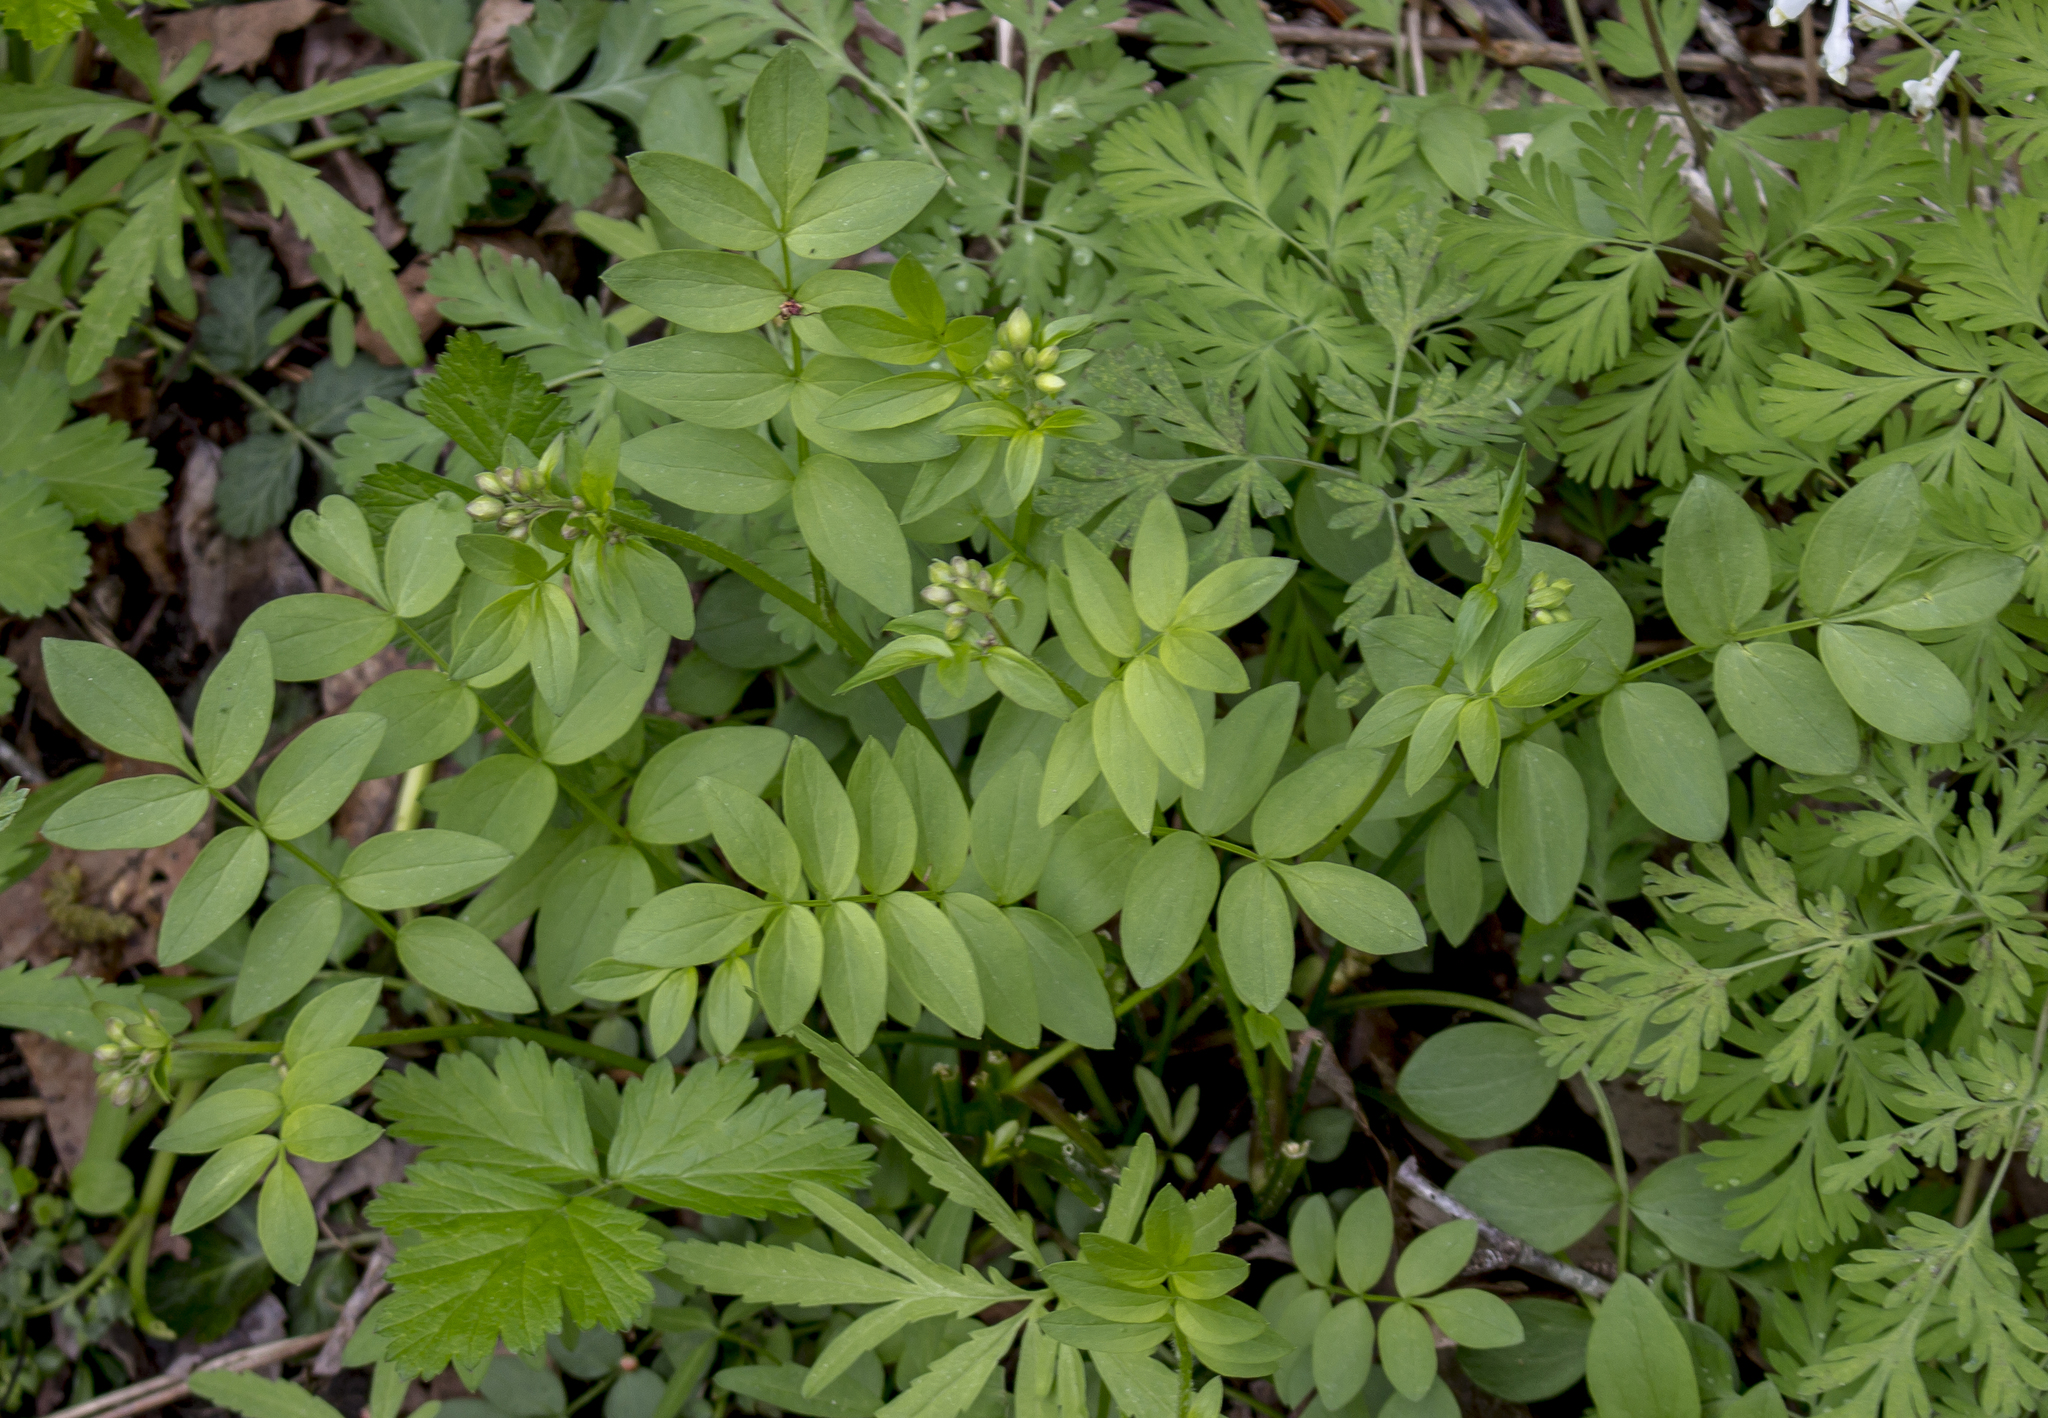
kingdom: Plantae
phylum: Tracheophyta
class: Magnoliopsida
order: Ericales
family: Polemoniaceae
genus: Polemonium
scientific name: Polemonium reptans
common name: Creeping jacob's-ladder
